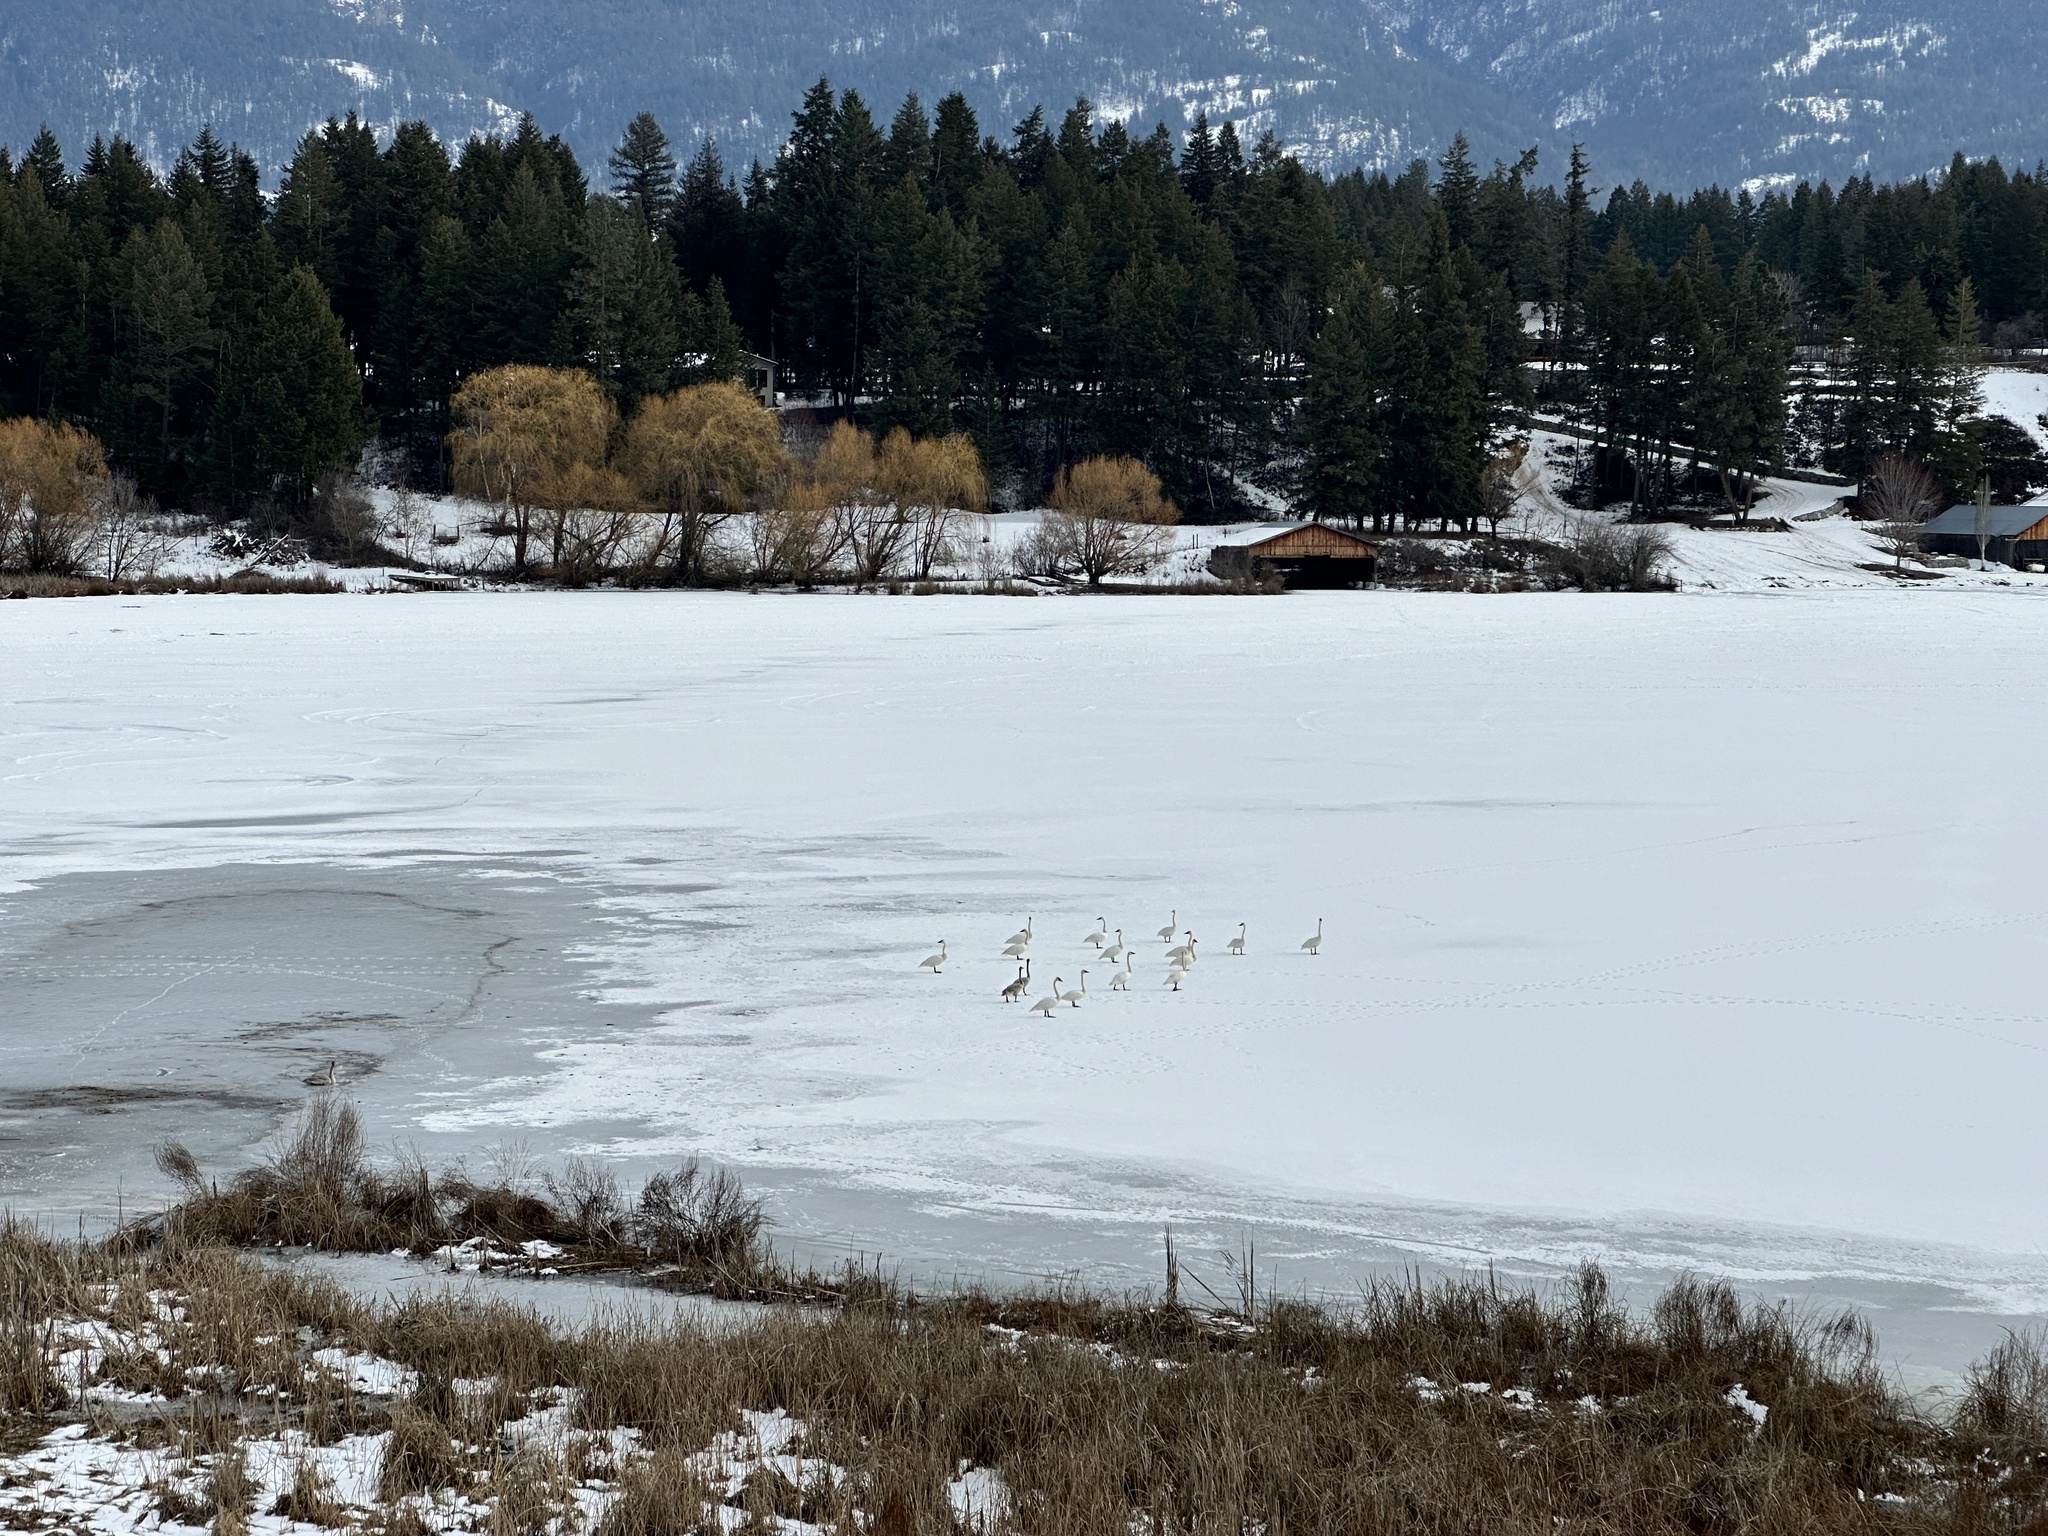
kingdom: Animalia
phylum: Chordata
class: Aves
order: Anseriformes
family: Anatidae
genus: Cygnus
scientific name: Cygnus buccinator
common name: Trumpeter swan
